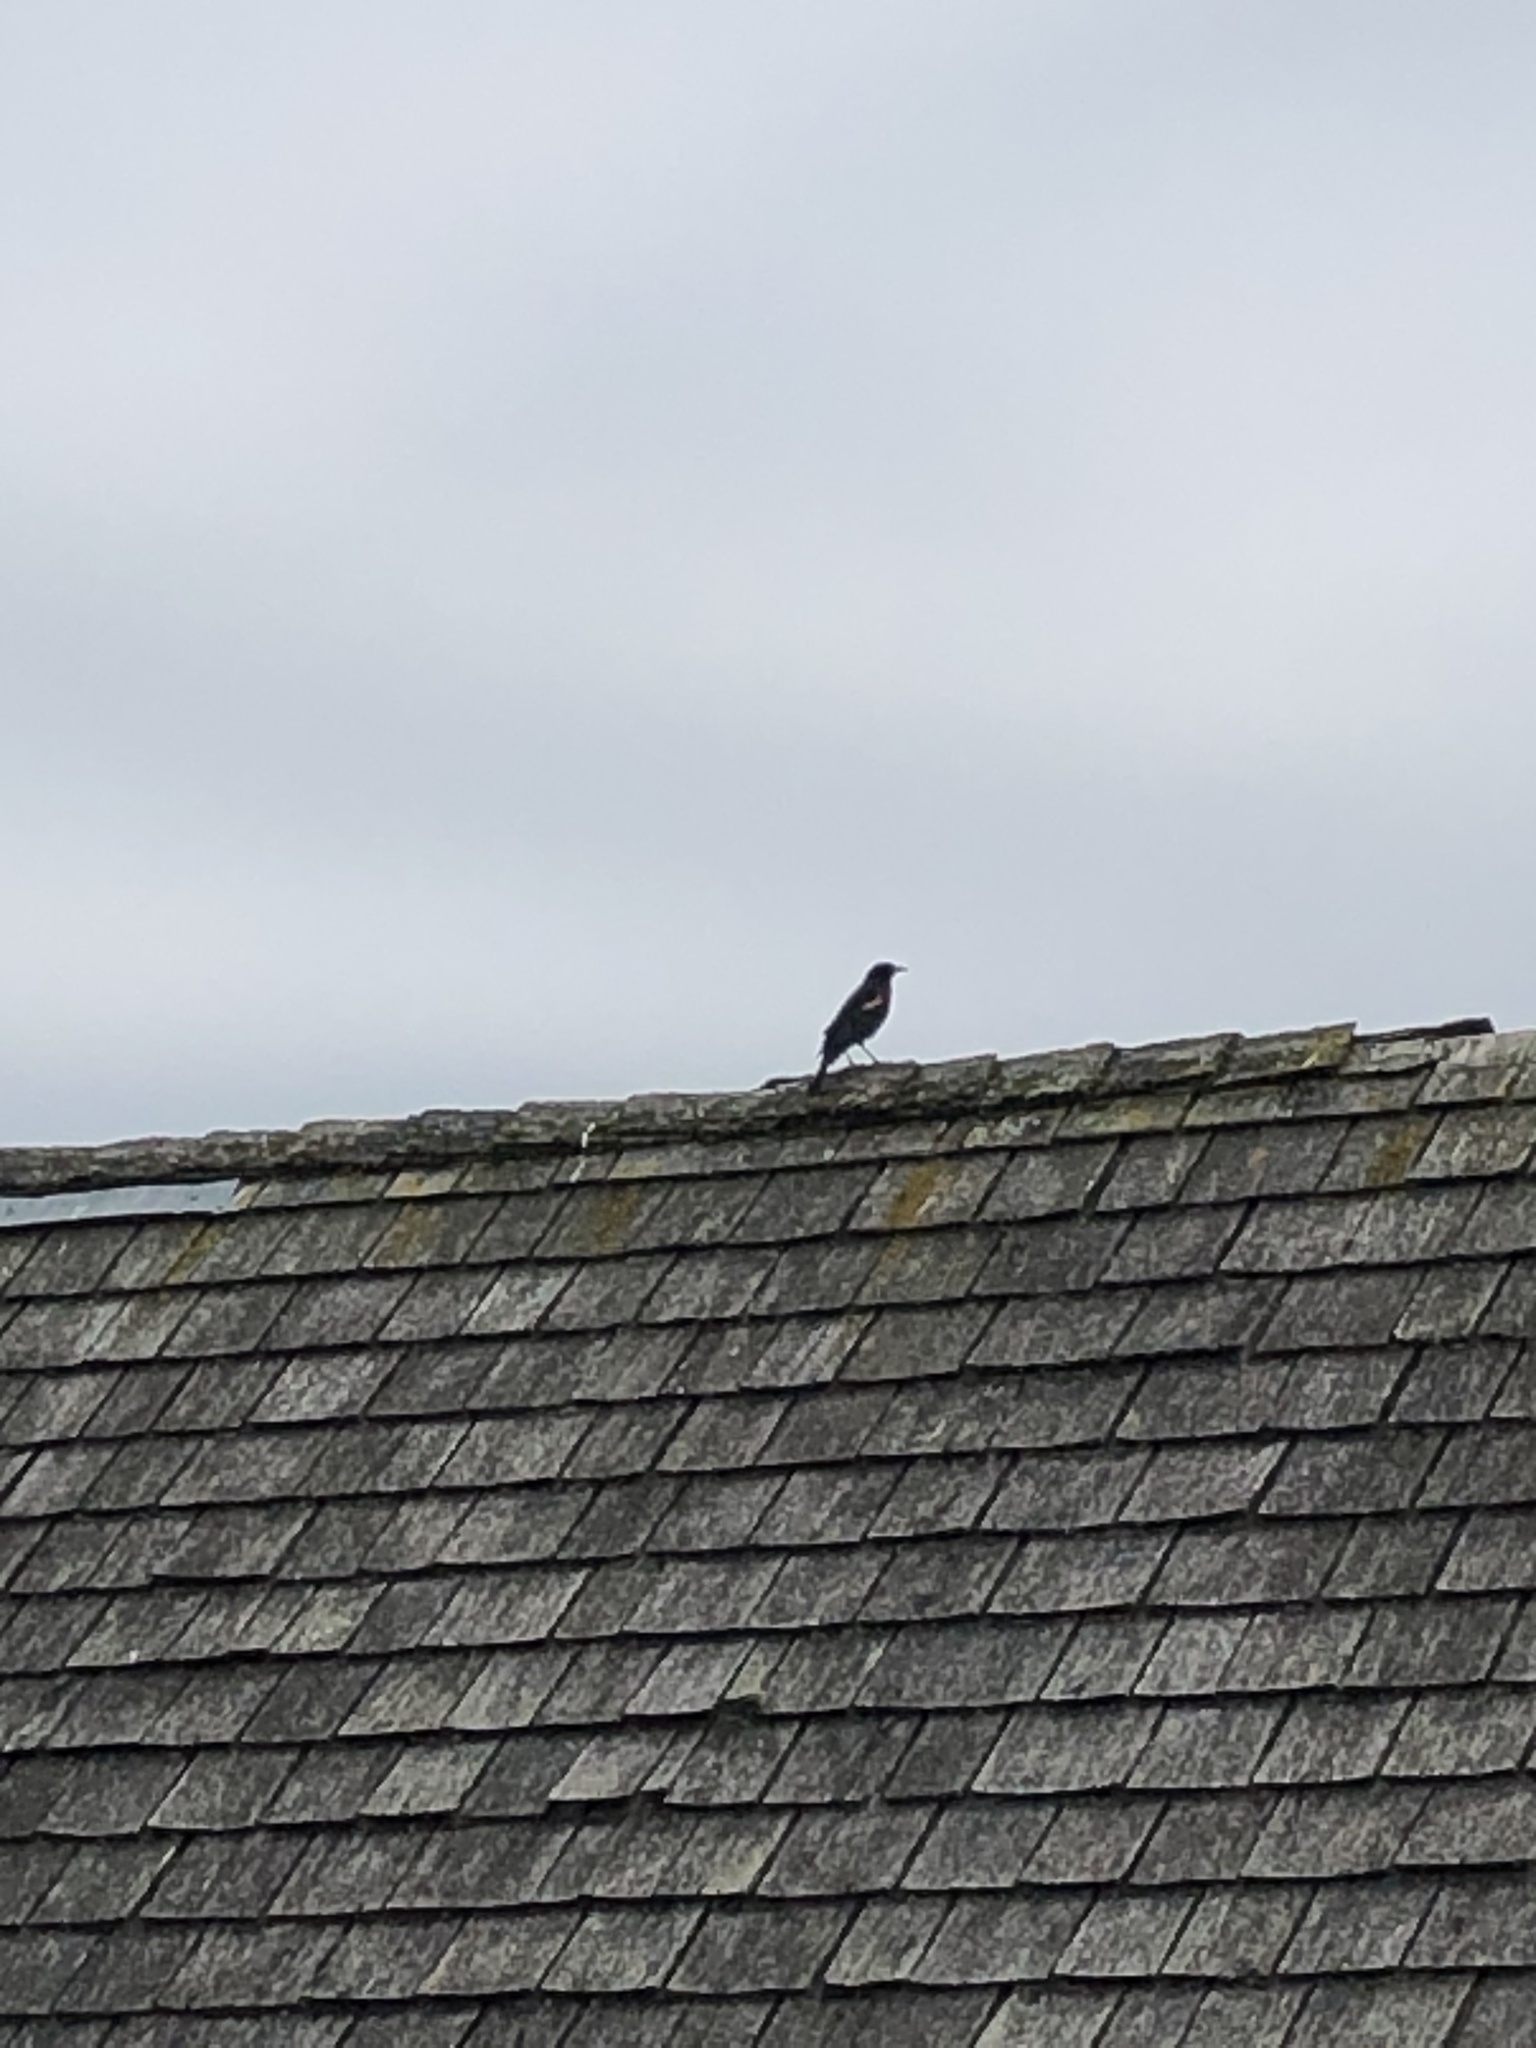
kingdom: Animalia
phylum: Chordata
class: Aves
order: Passeriformes
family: Icteridae
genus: Agelaius
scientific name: Agelaius phoeniceus
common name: Red-winged blackbird
